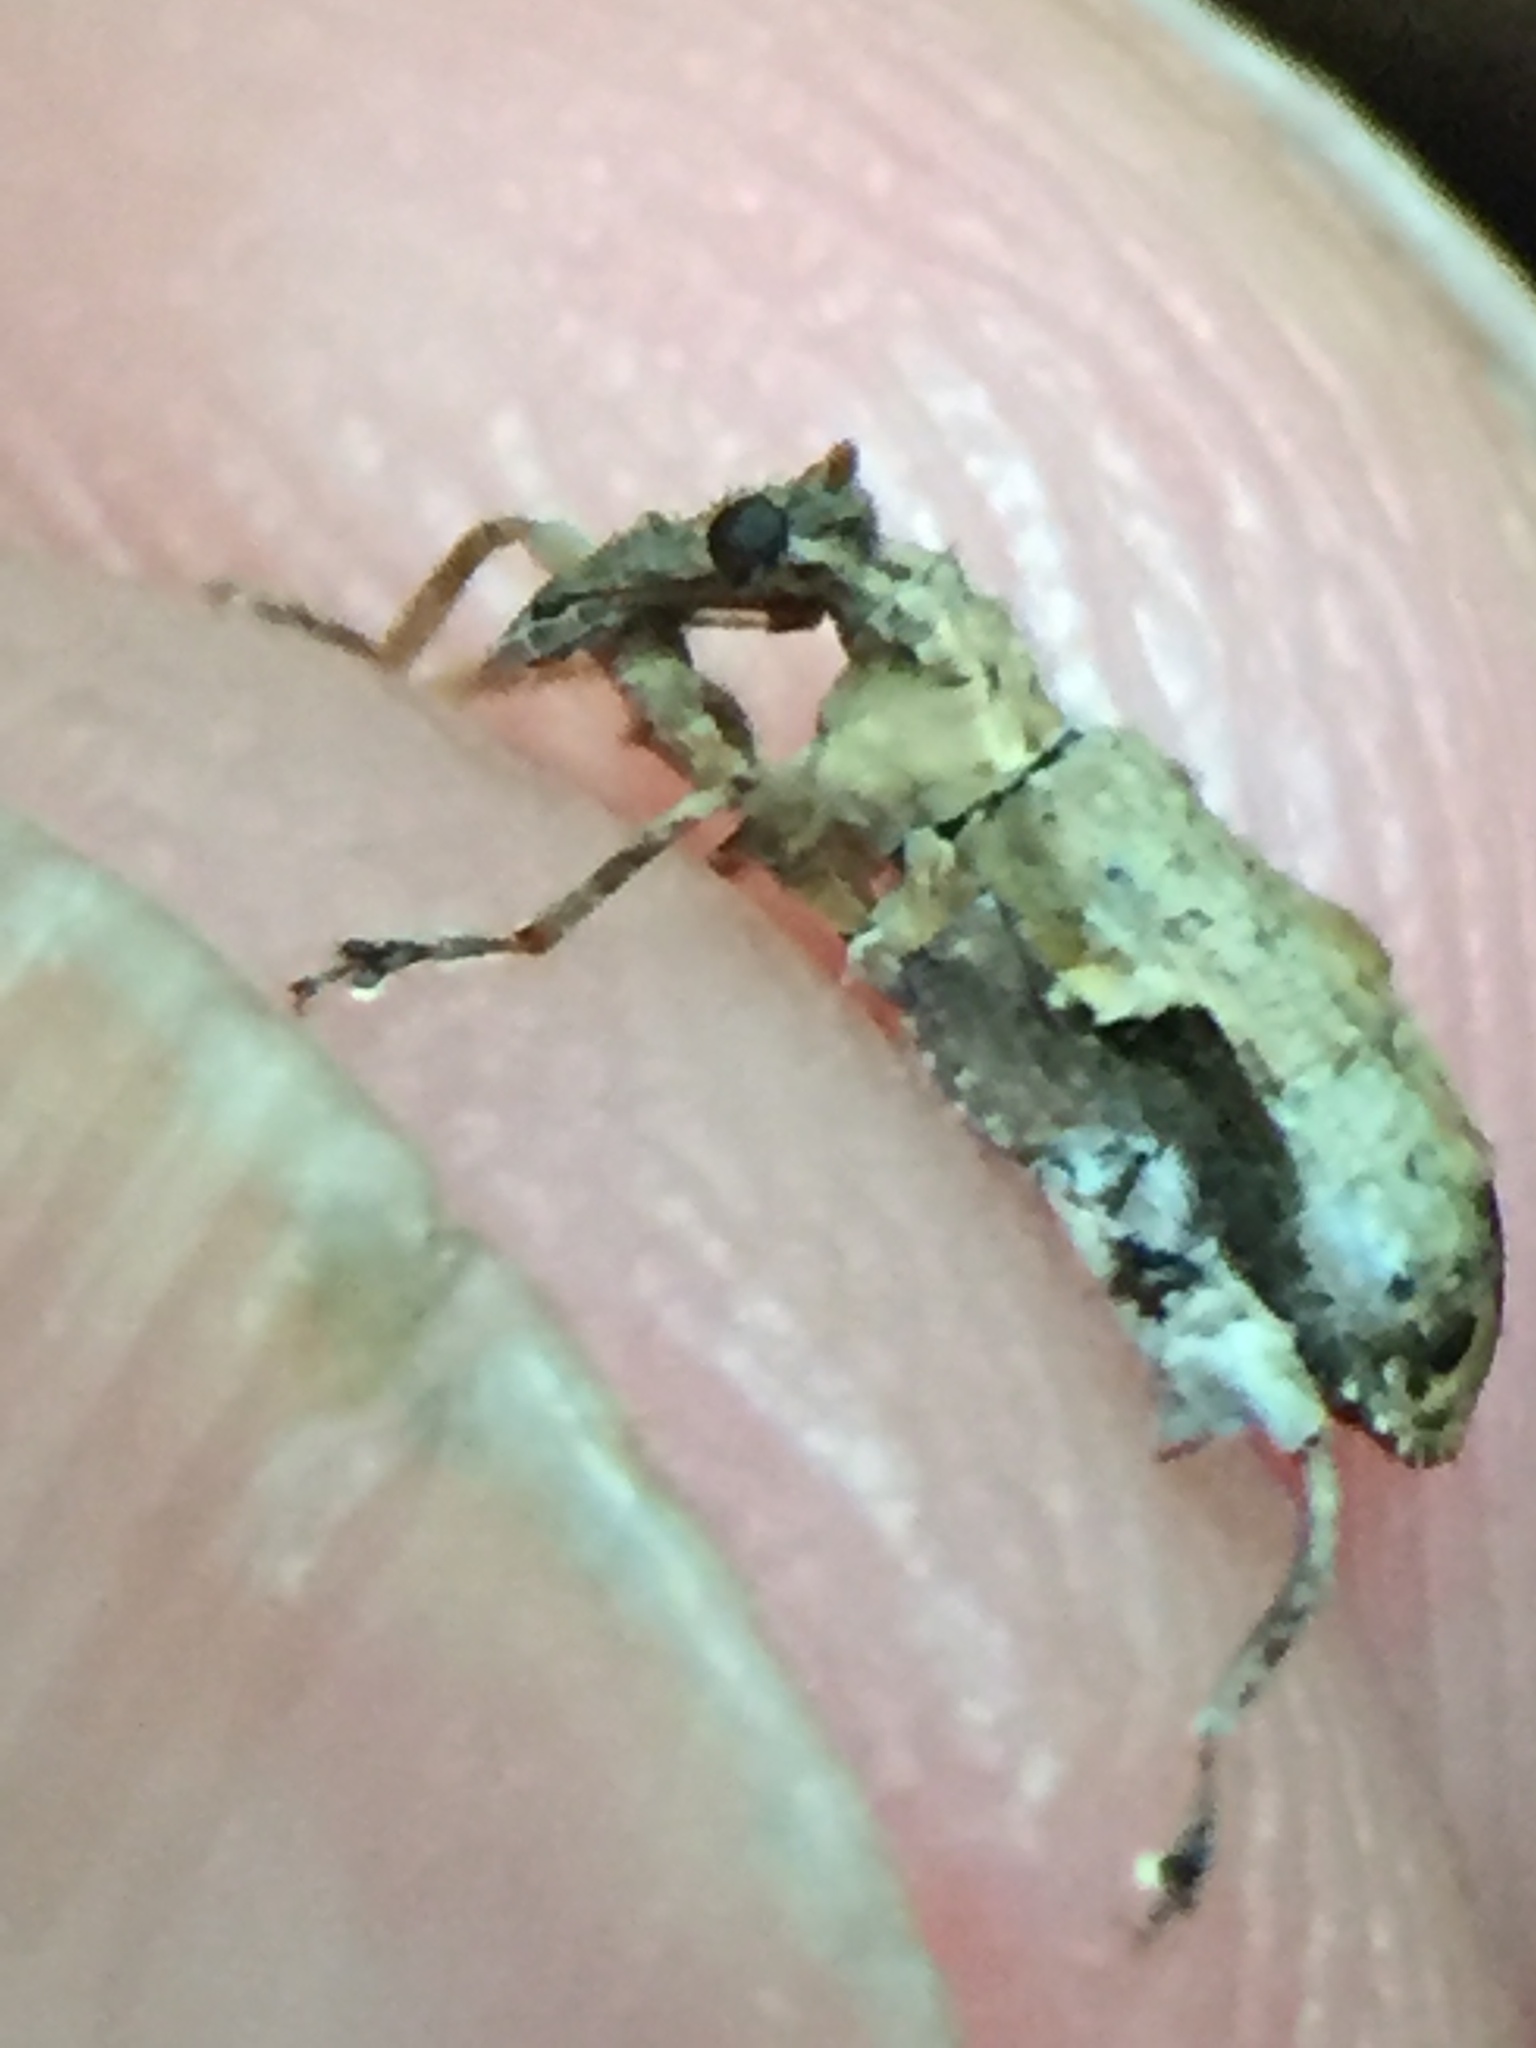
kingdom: Animalia
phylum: Arthropoda
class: Insecta
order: Coleoptera
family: Curculionidae
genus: Stephanorhynchus
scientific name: Stephanorhynchus curvipes
